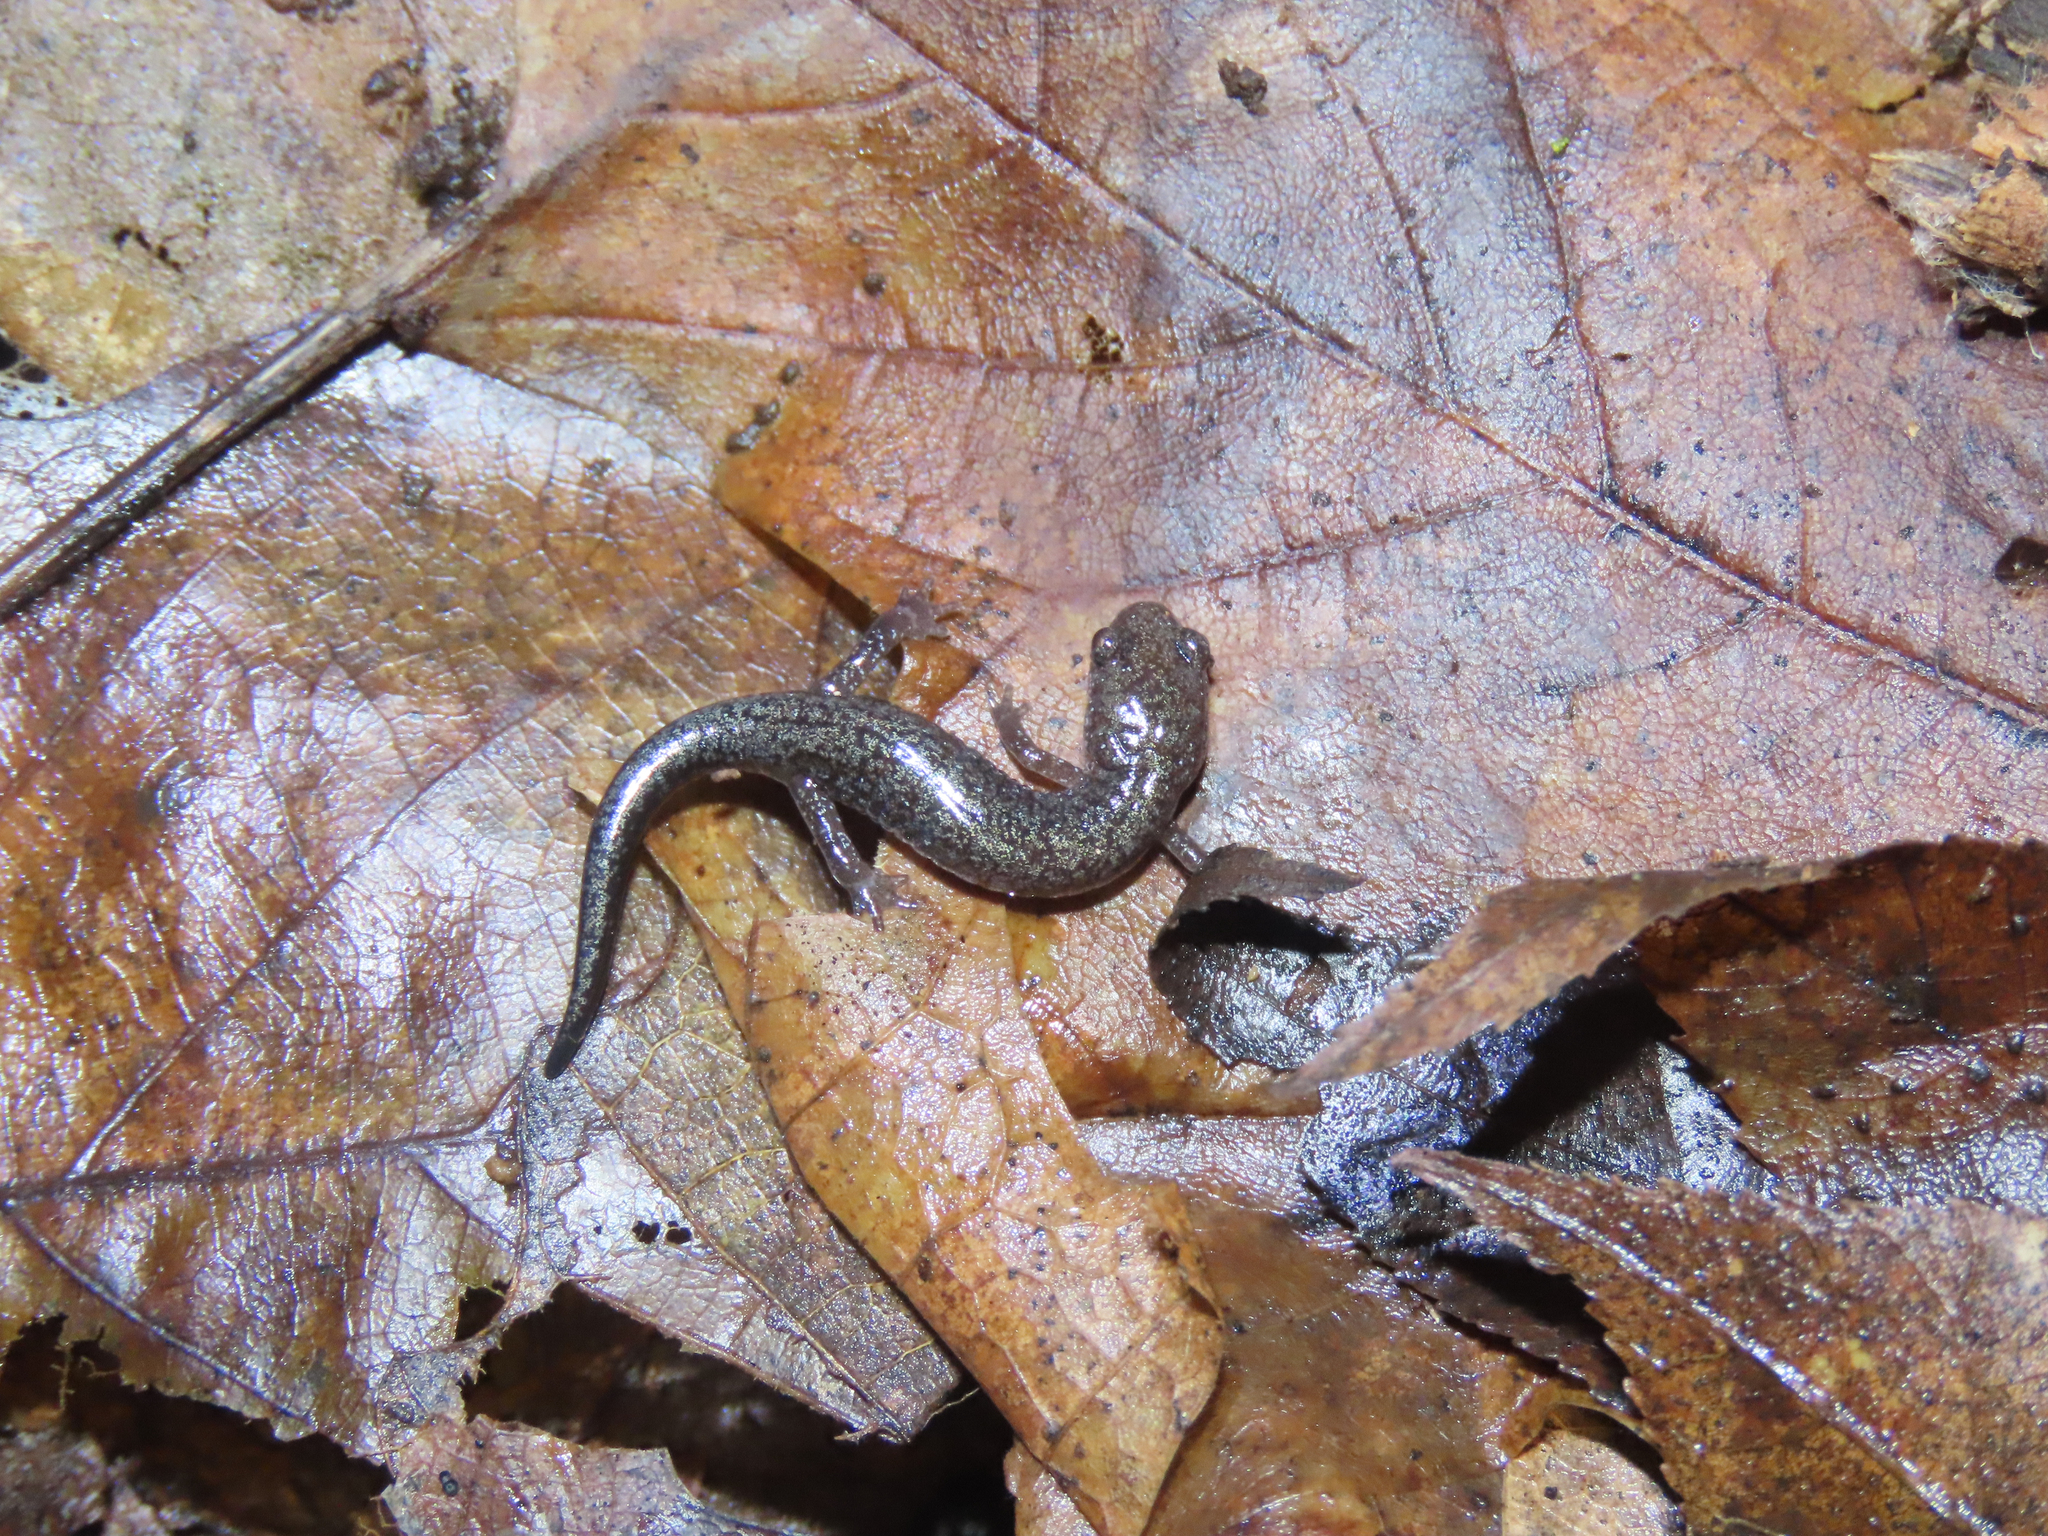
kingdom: Animalia
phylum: Chordata
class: Amphibia
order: Caudata
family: Plethodontidae
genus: Plethodon
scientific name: Plethodon dorsalis
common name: Northern zigzag salamander
